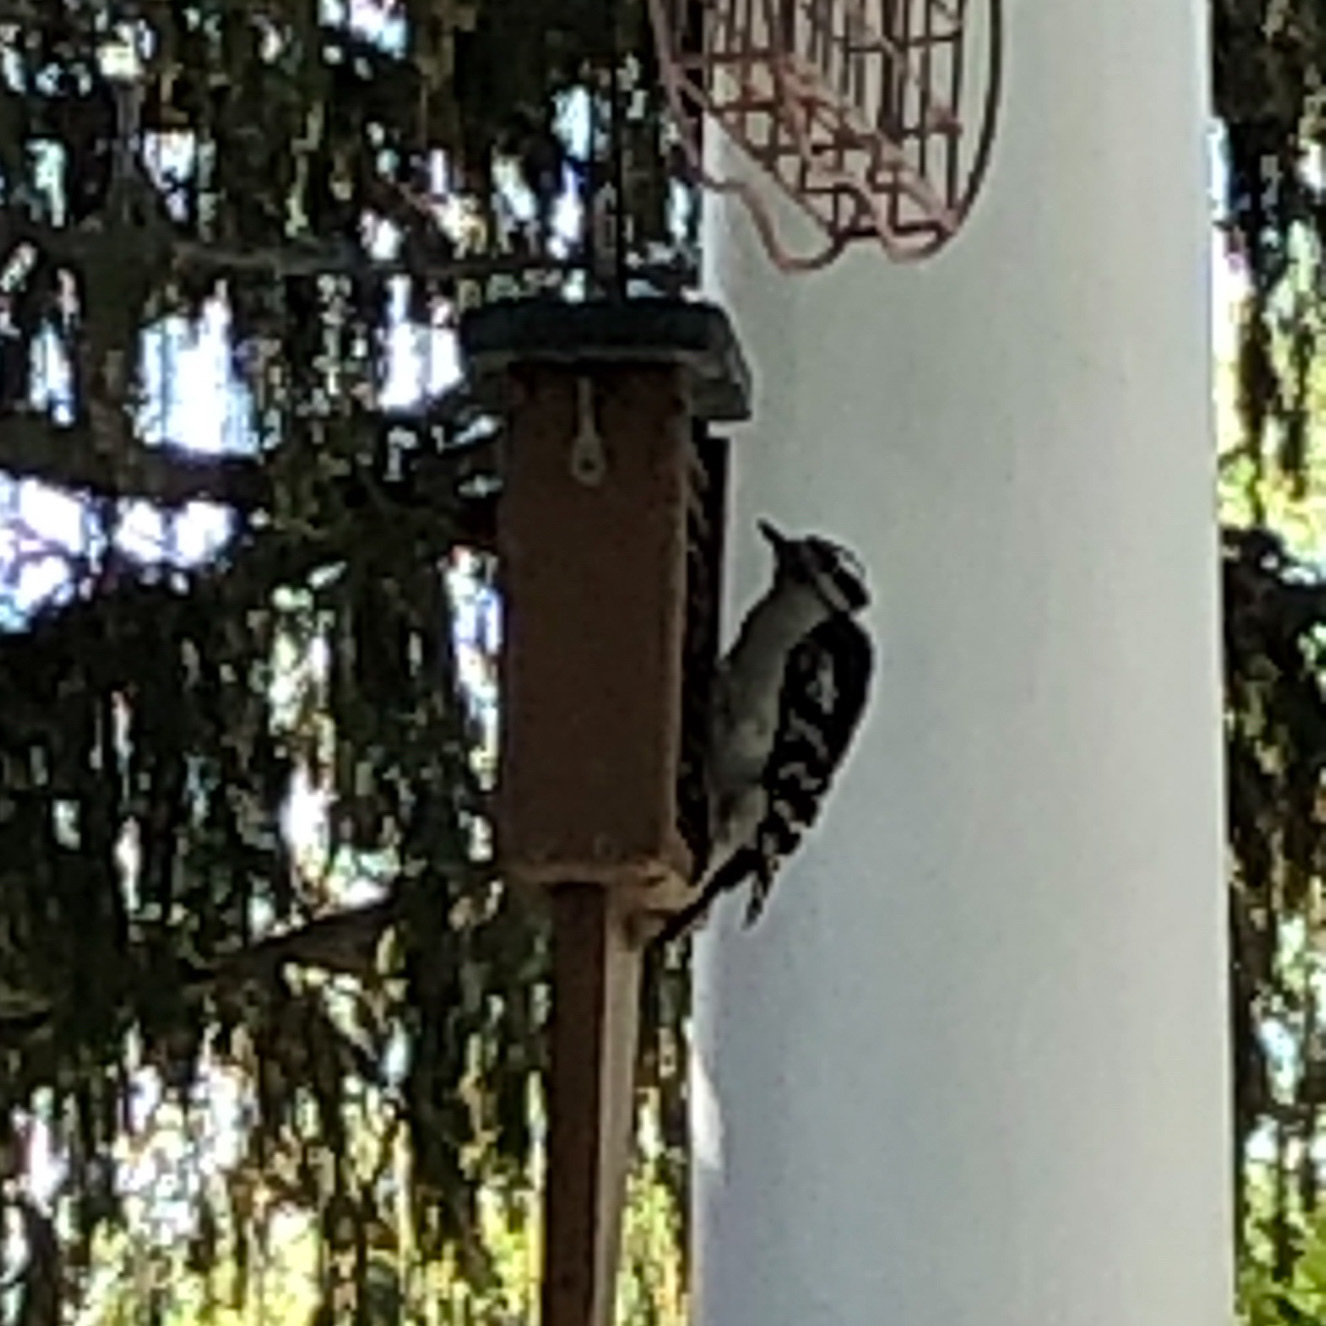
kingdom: Animalia
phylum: Chordata
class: Aves
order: Piciformes
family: Picidae
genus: Dryobates
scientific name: Dryobates pubescens
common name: Downy woodpecker
